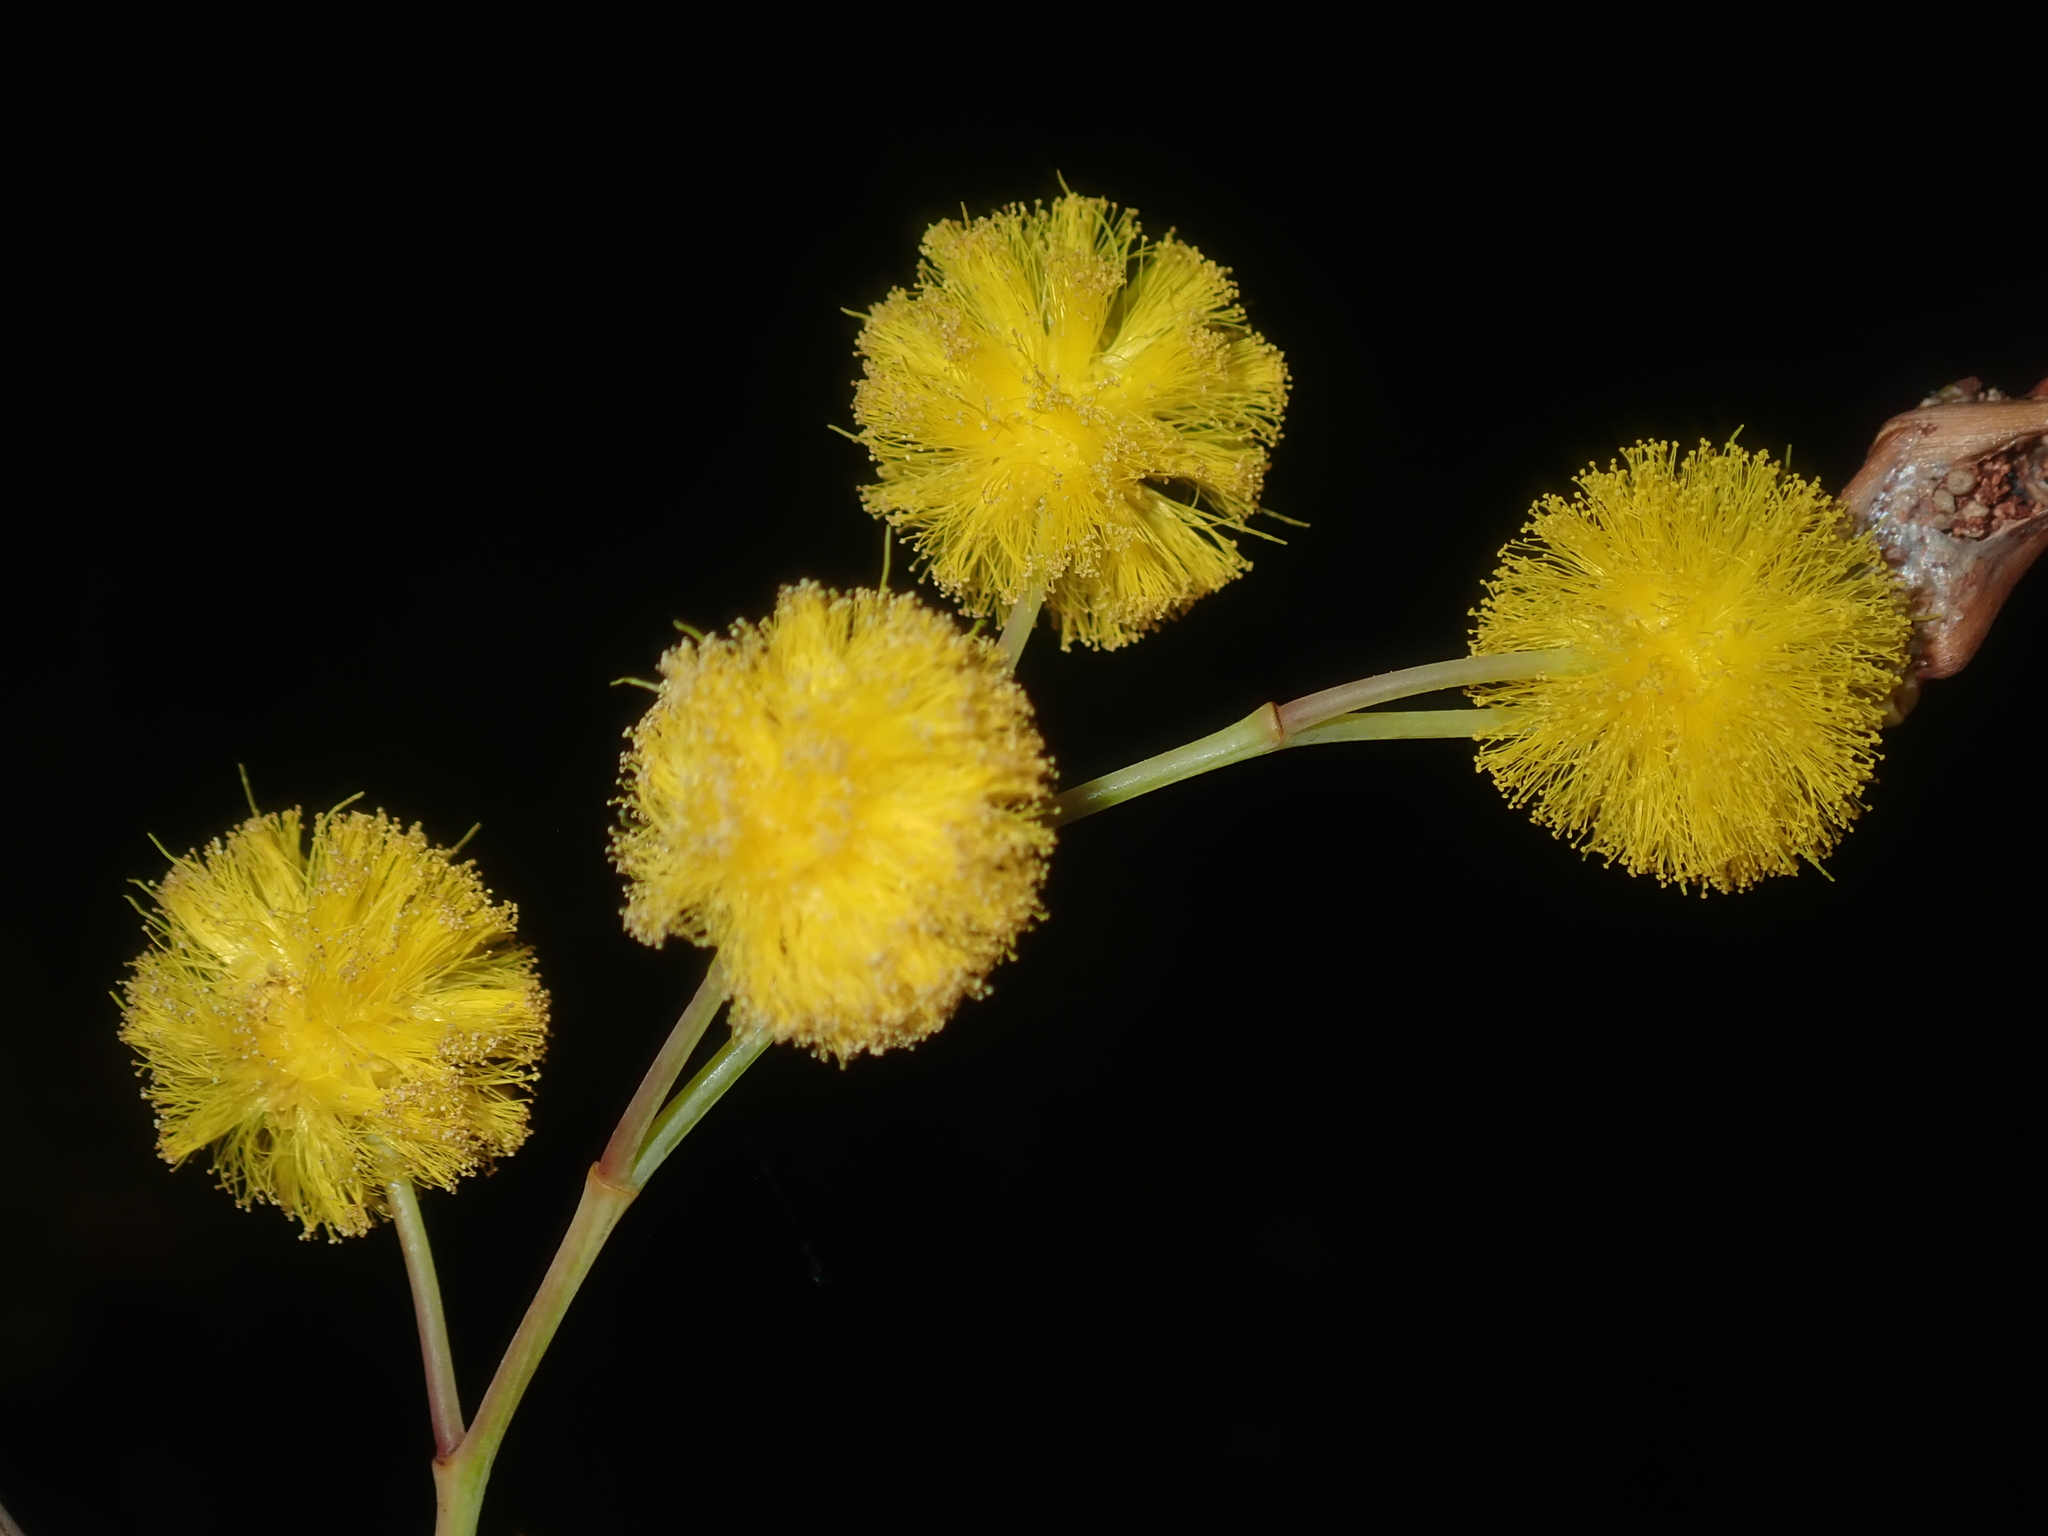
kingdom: Plantae
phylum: Tracheophyta
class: Magnoliopsida
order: Fabales
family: Fabaceae
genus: Acacia
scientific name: Acacia restiacea
